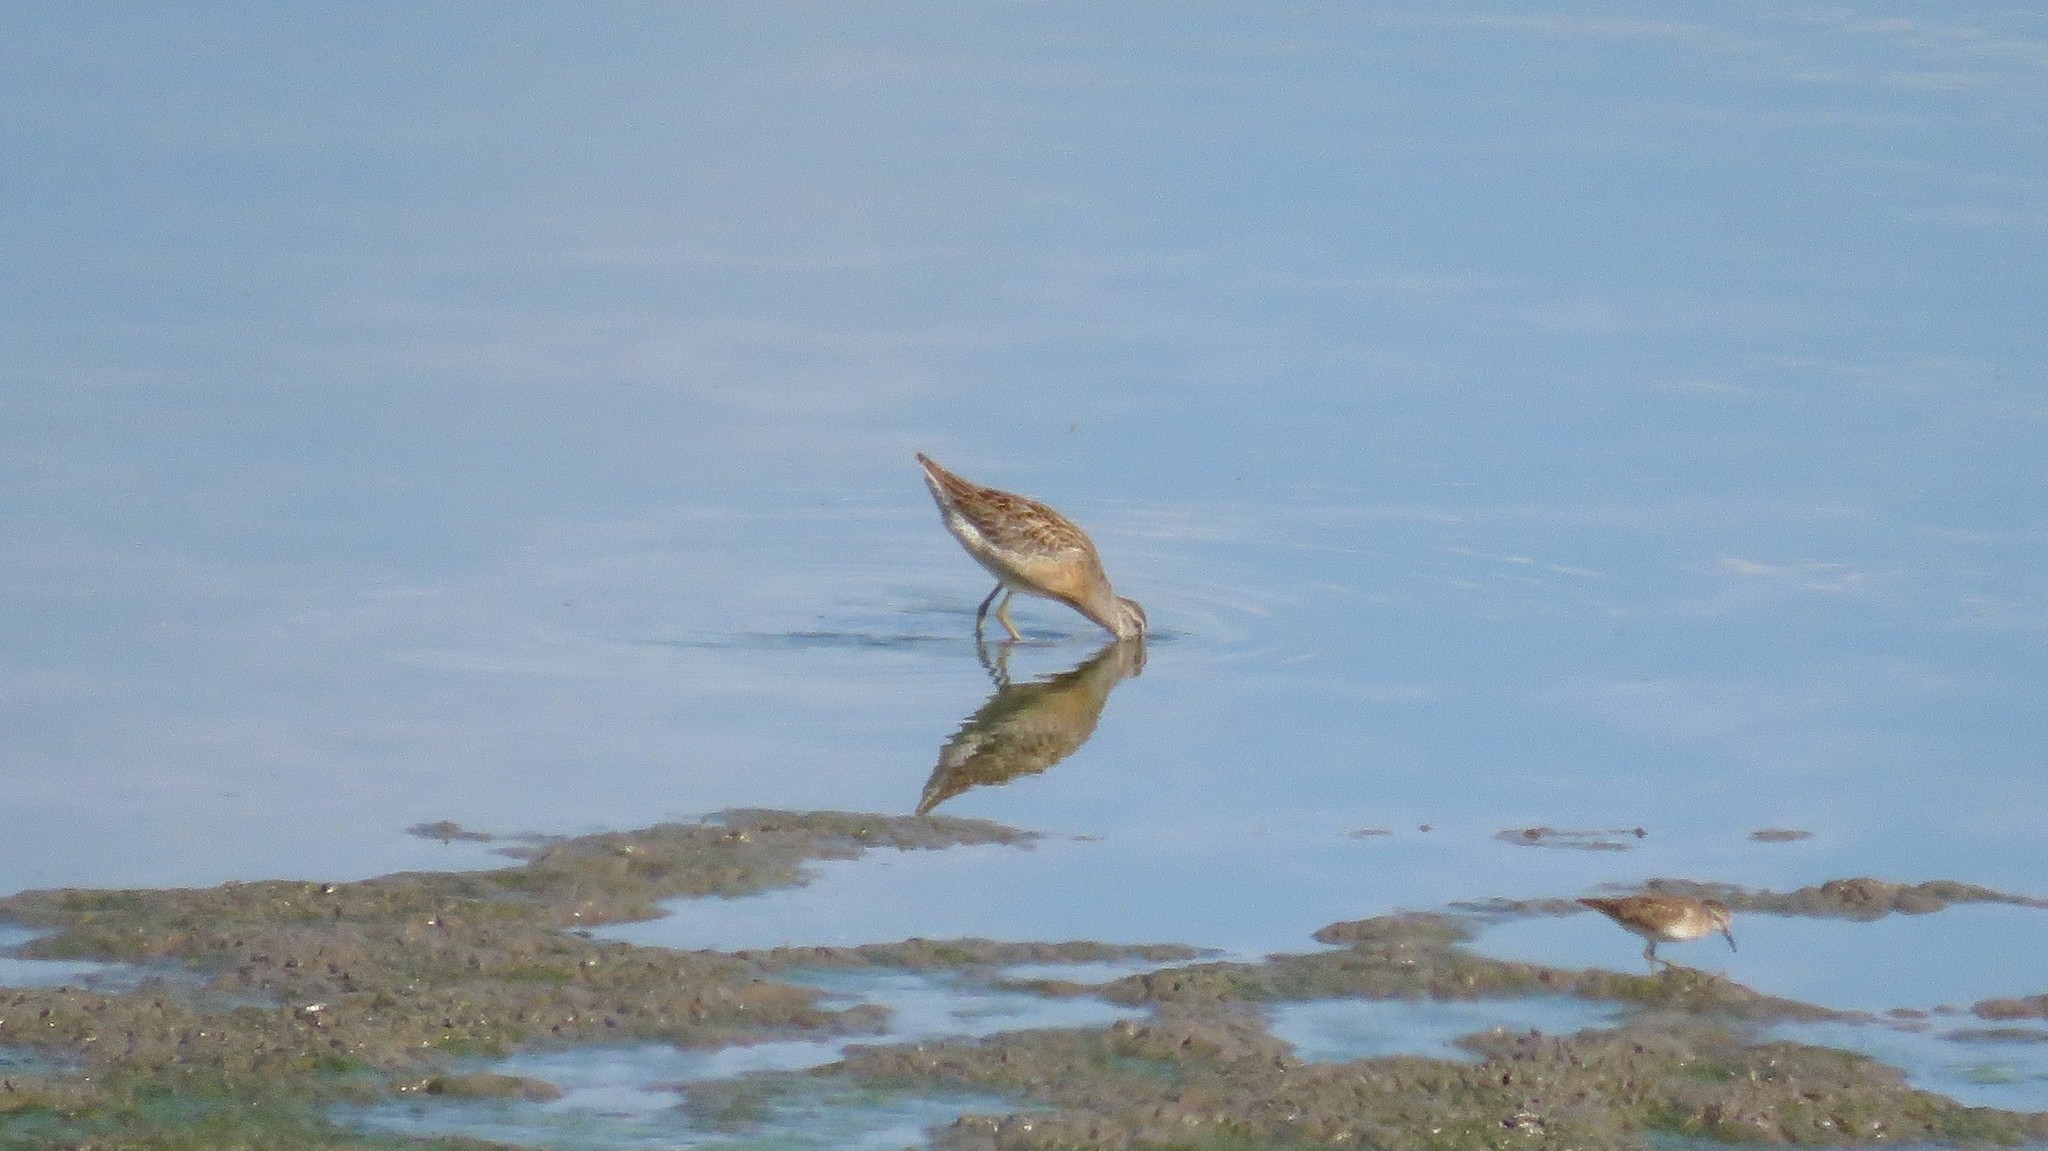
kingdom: Animalia
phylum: Chordata
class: Aves
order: Charadriiformes
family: Scolopacidae
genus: Limnodromus
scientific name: Limnodromus griseus
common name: Short-billed dowitcher
